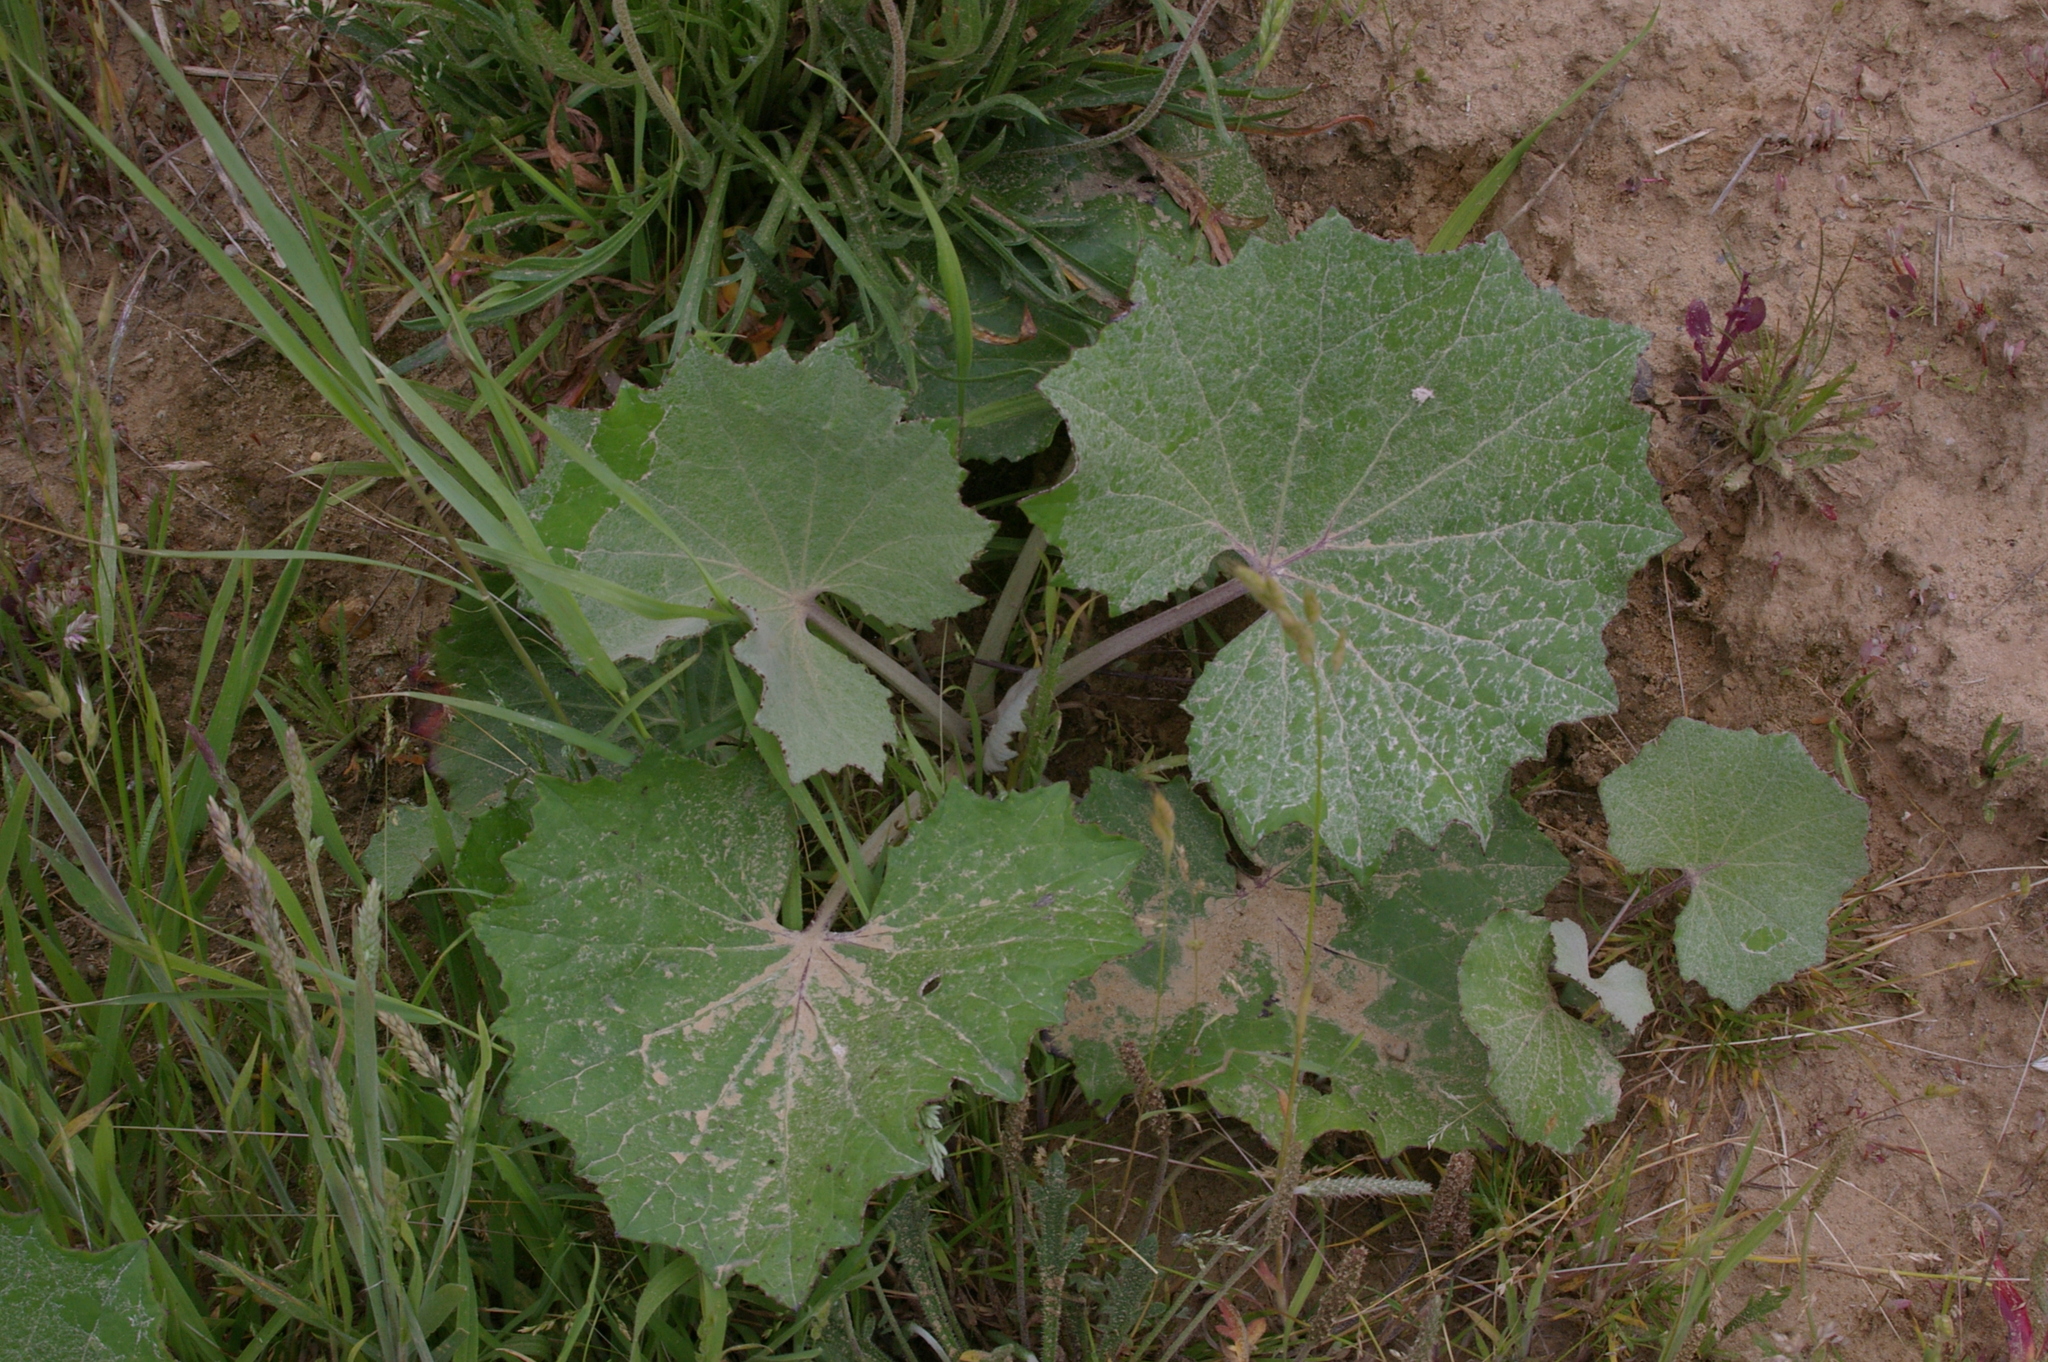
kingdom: Plantae
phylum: Tracheophyta
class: Magnoliopsida
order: Asterales
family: Asteraceae
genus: Tussilago
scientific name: Tussilago farfara
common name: Coltsfoot
